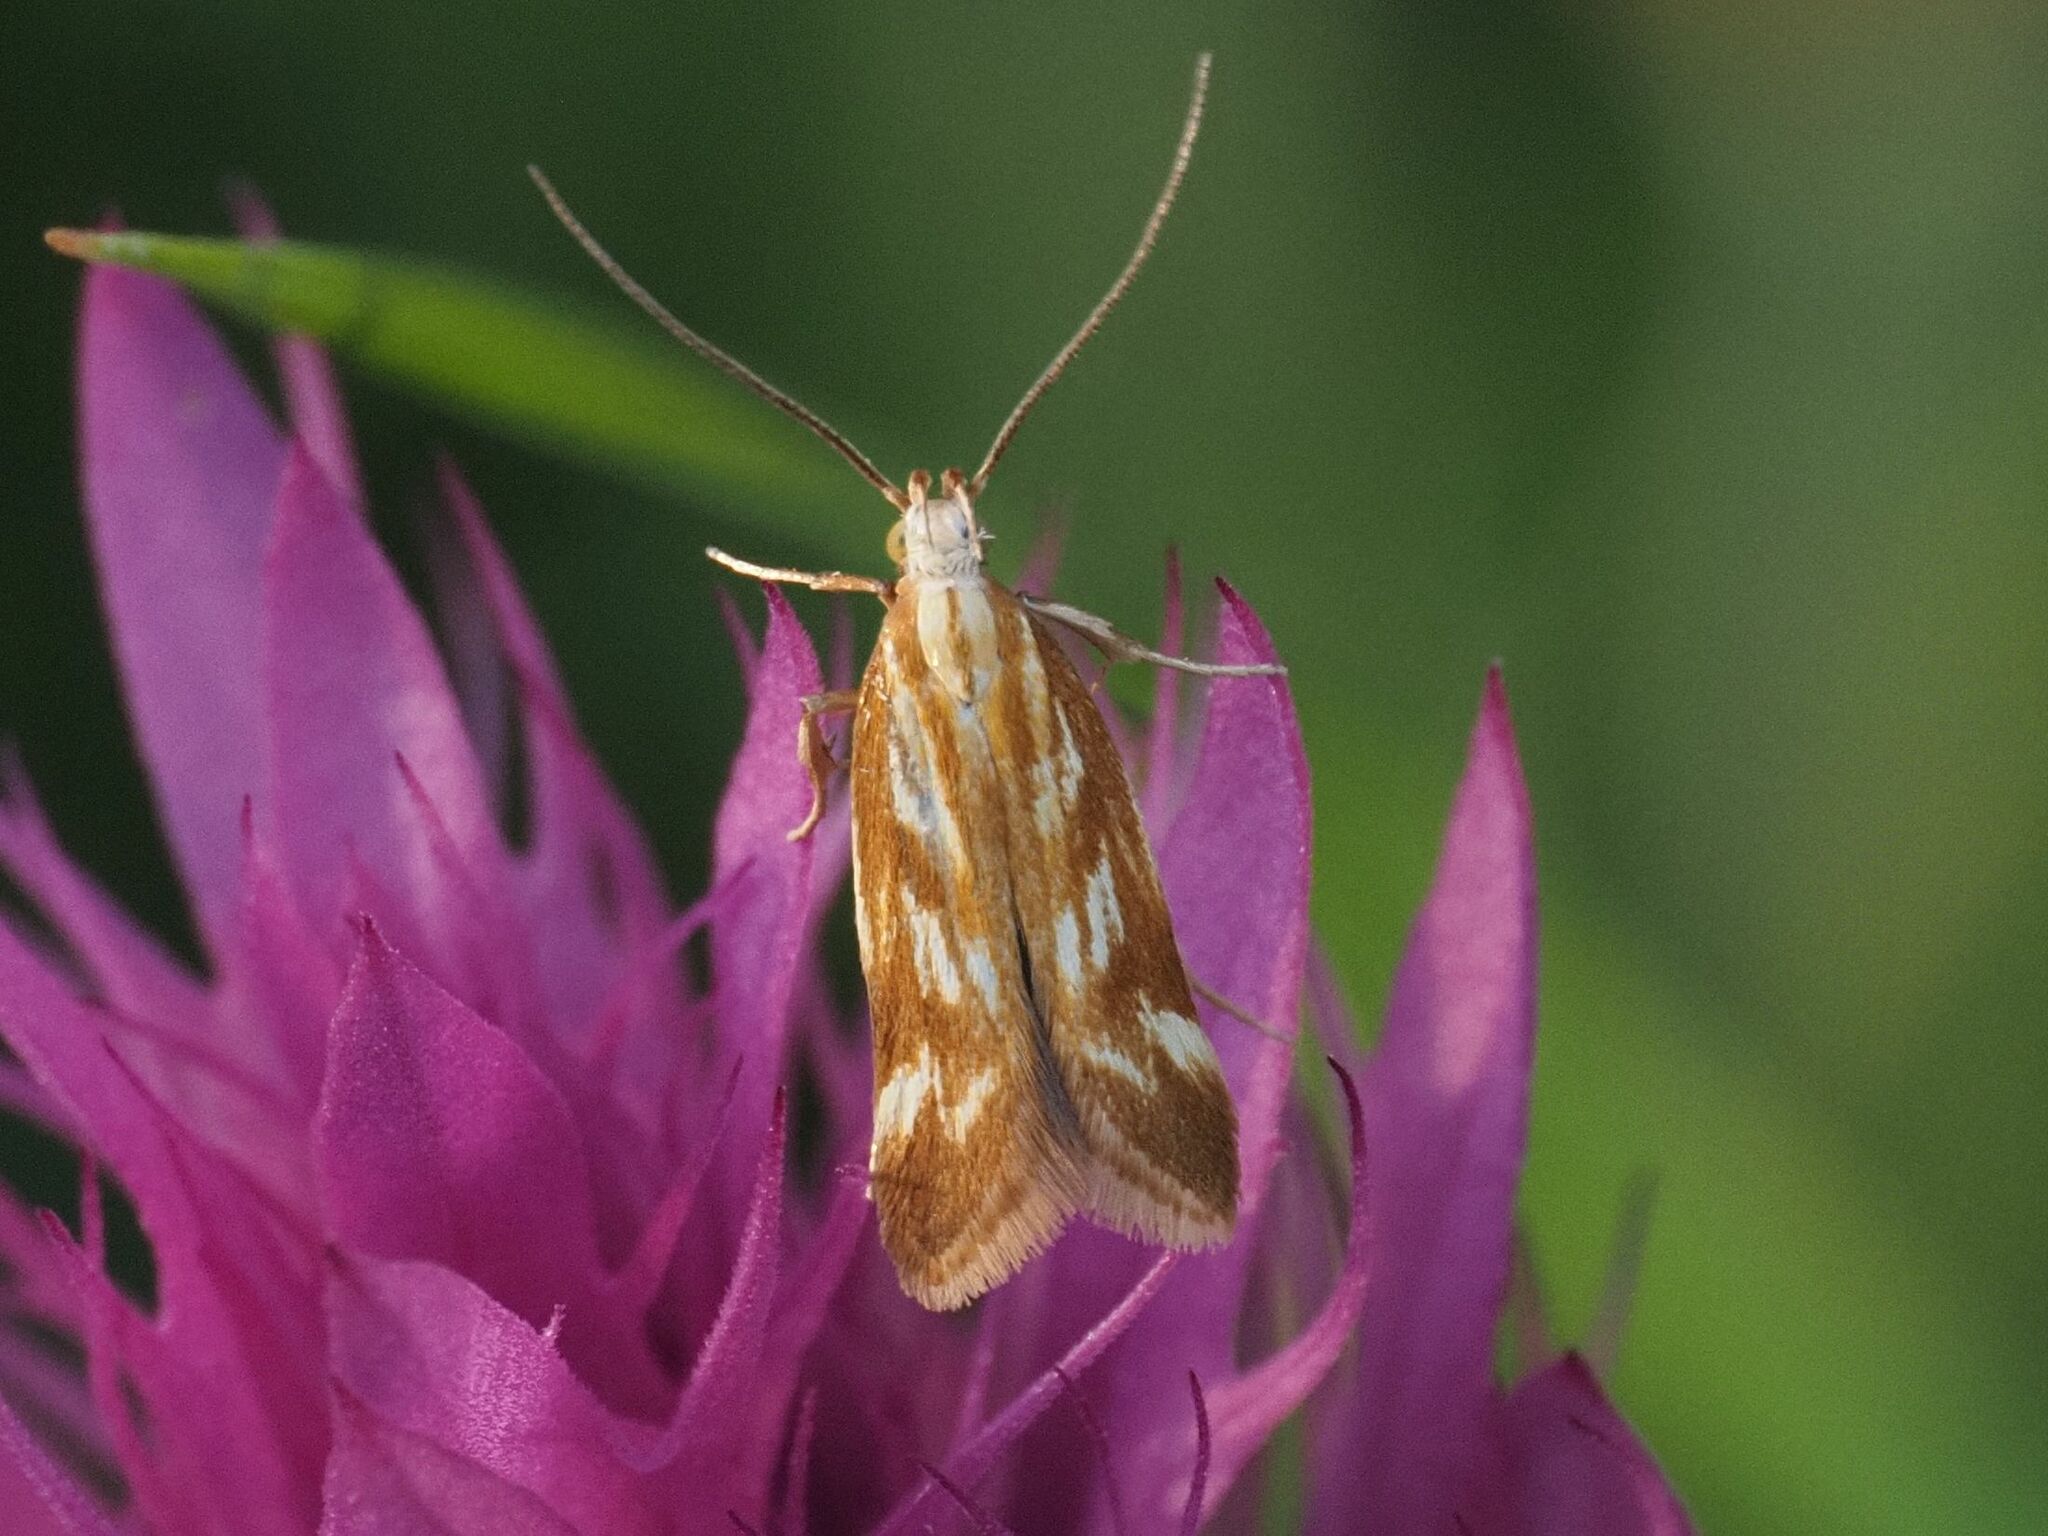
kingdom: Animalia
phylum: Arthropoda
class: Insecta
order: Lepidoptera
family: Gelechiidae
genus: Mirificarma
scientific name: Mirificarma eburnella
